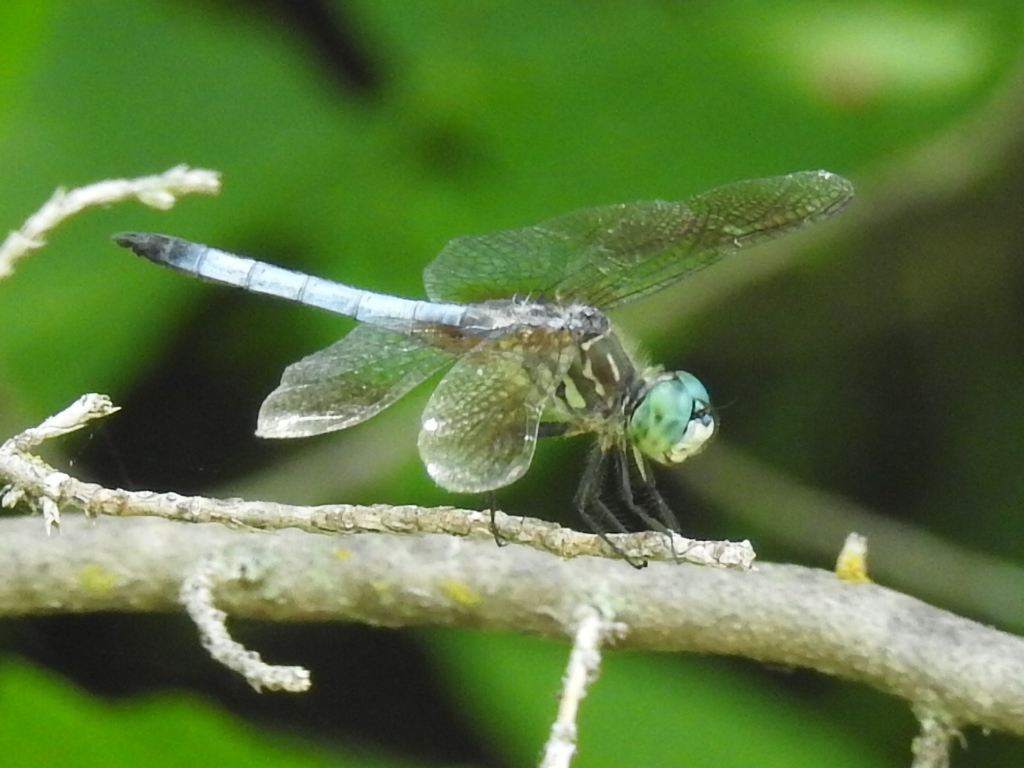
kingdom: Animalia
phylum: Arthropoda
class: Insecta
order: Odonata
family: Libellulidae
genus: Pachydiplax
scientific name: Pachydiplax longipennis
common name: Blue dasher
